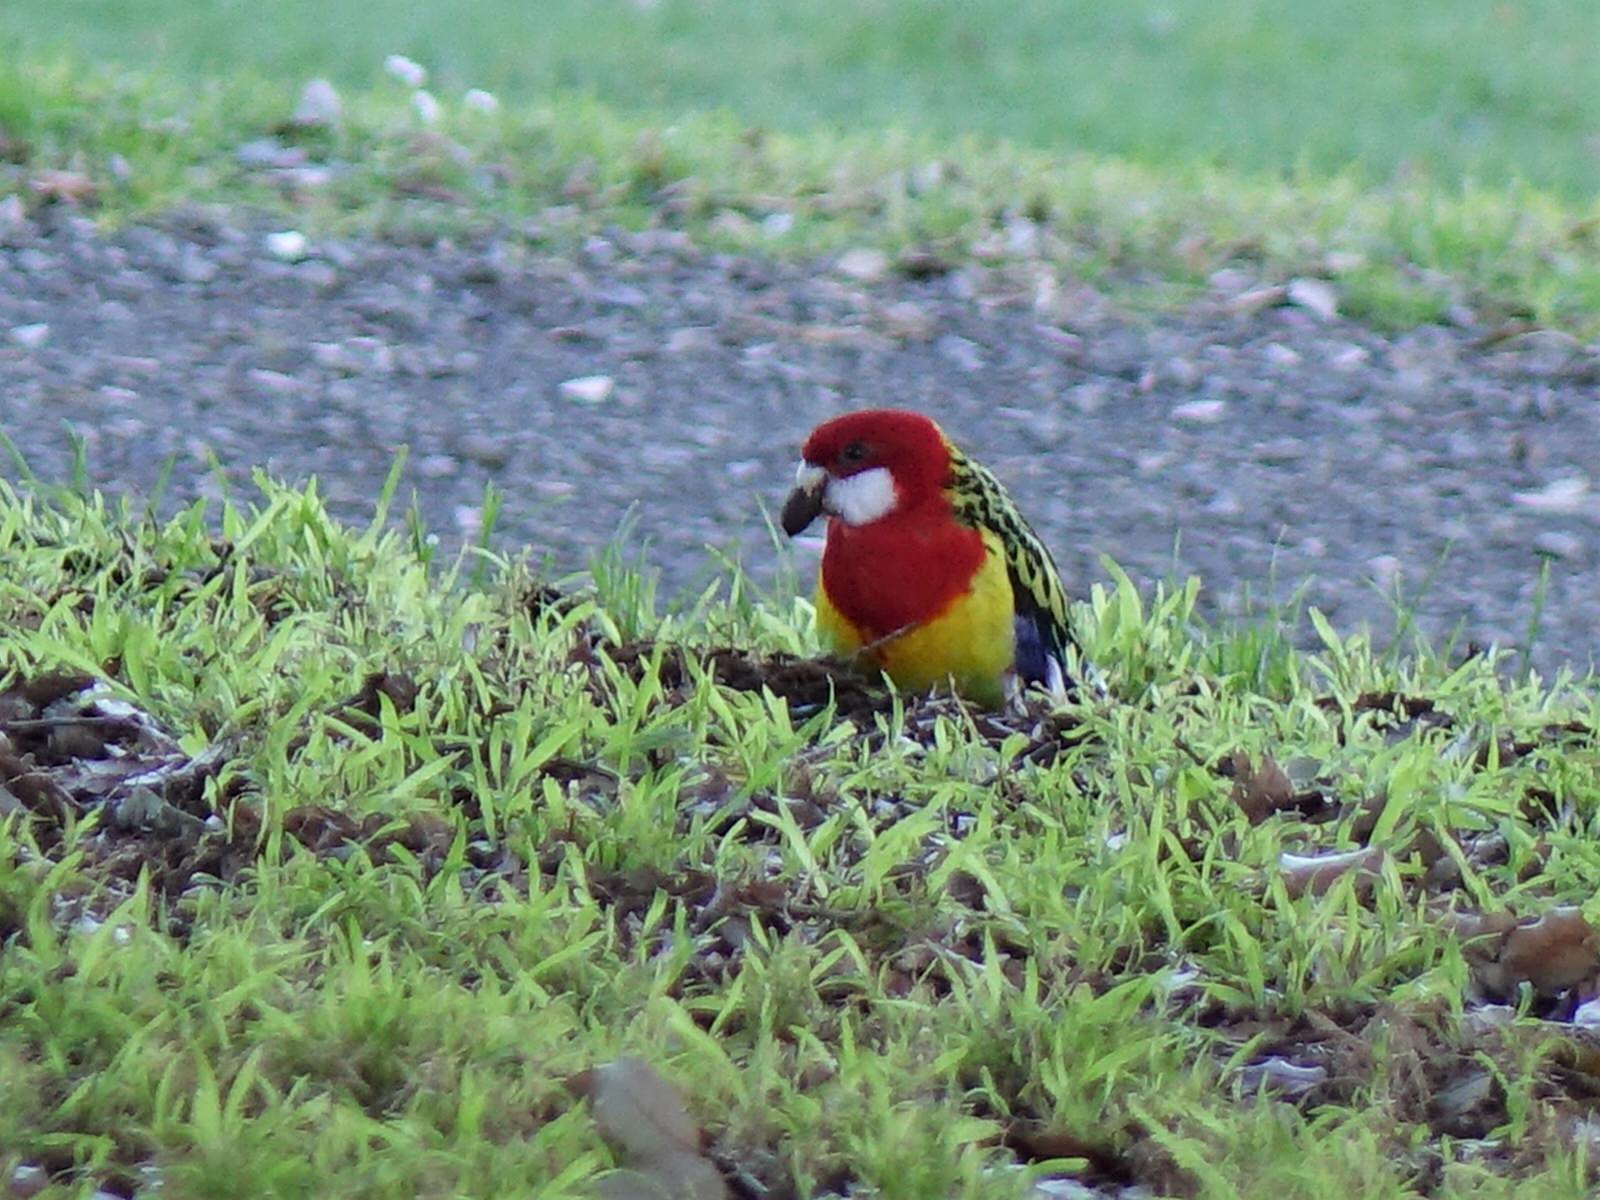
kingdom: Animalia
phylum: Chordata
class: Aves
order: Psittaciformes
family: Psittacidae
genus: Platycercus
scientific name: Platycercus eximius
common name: Eastern rosella
